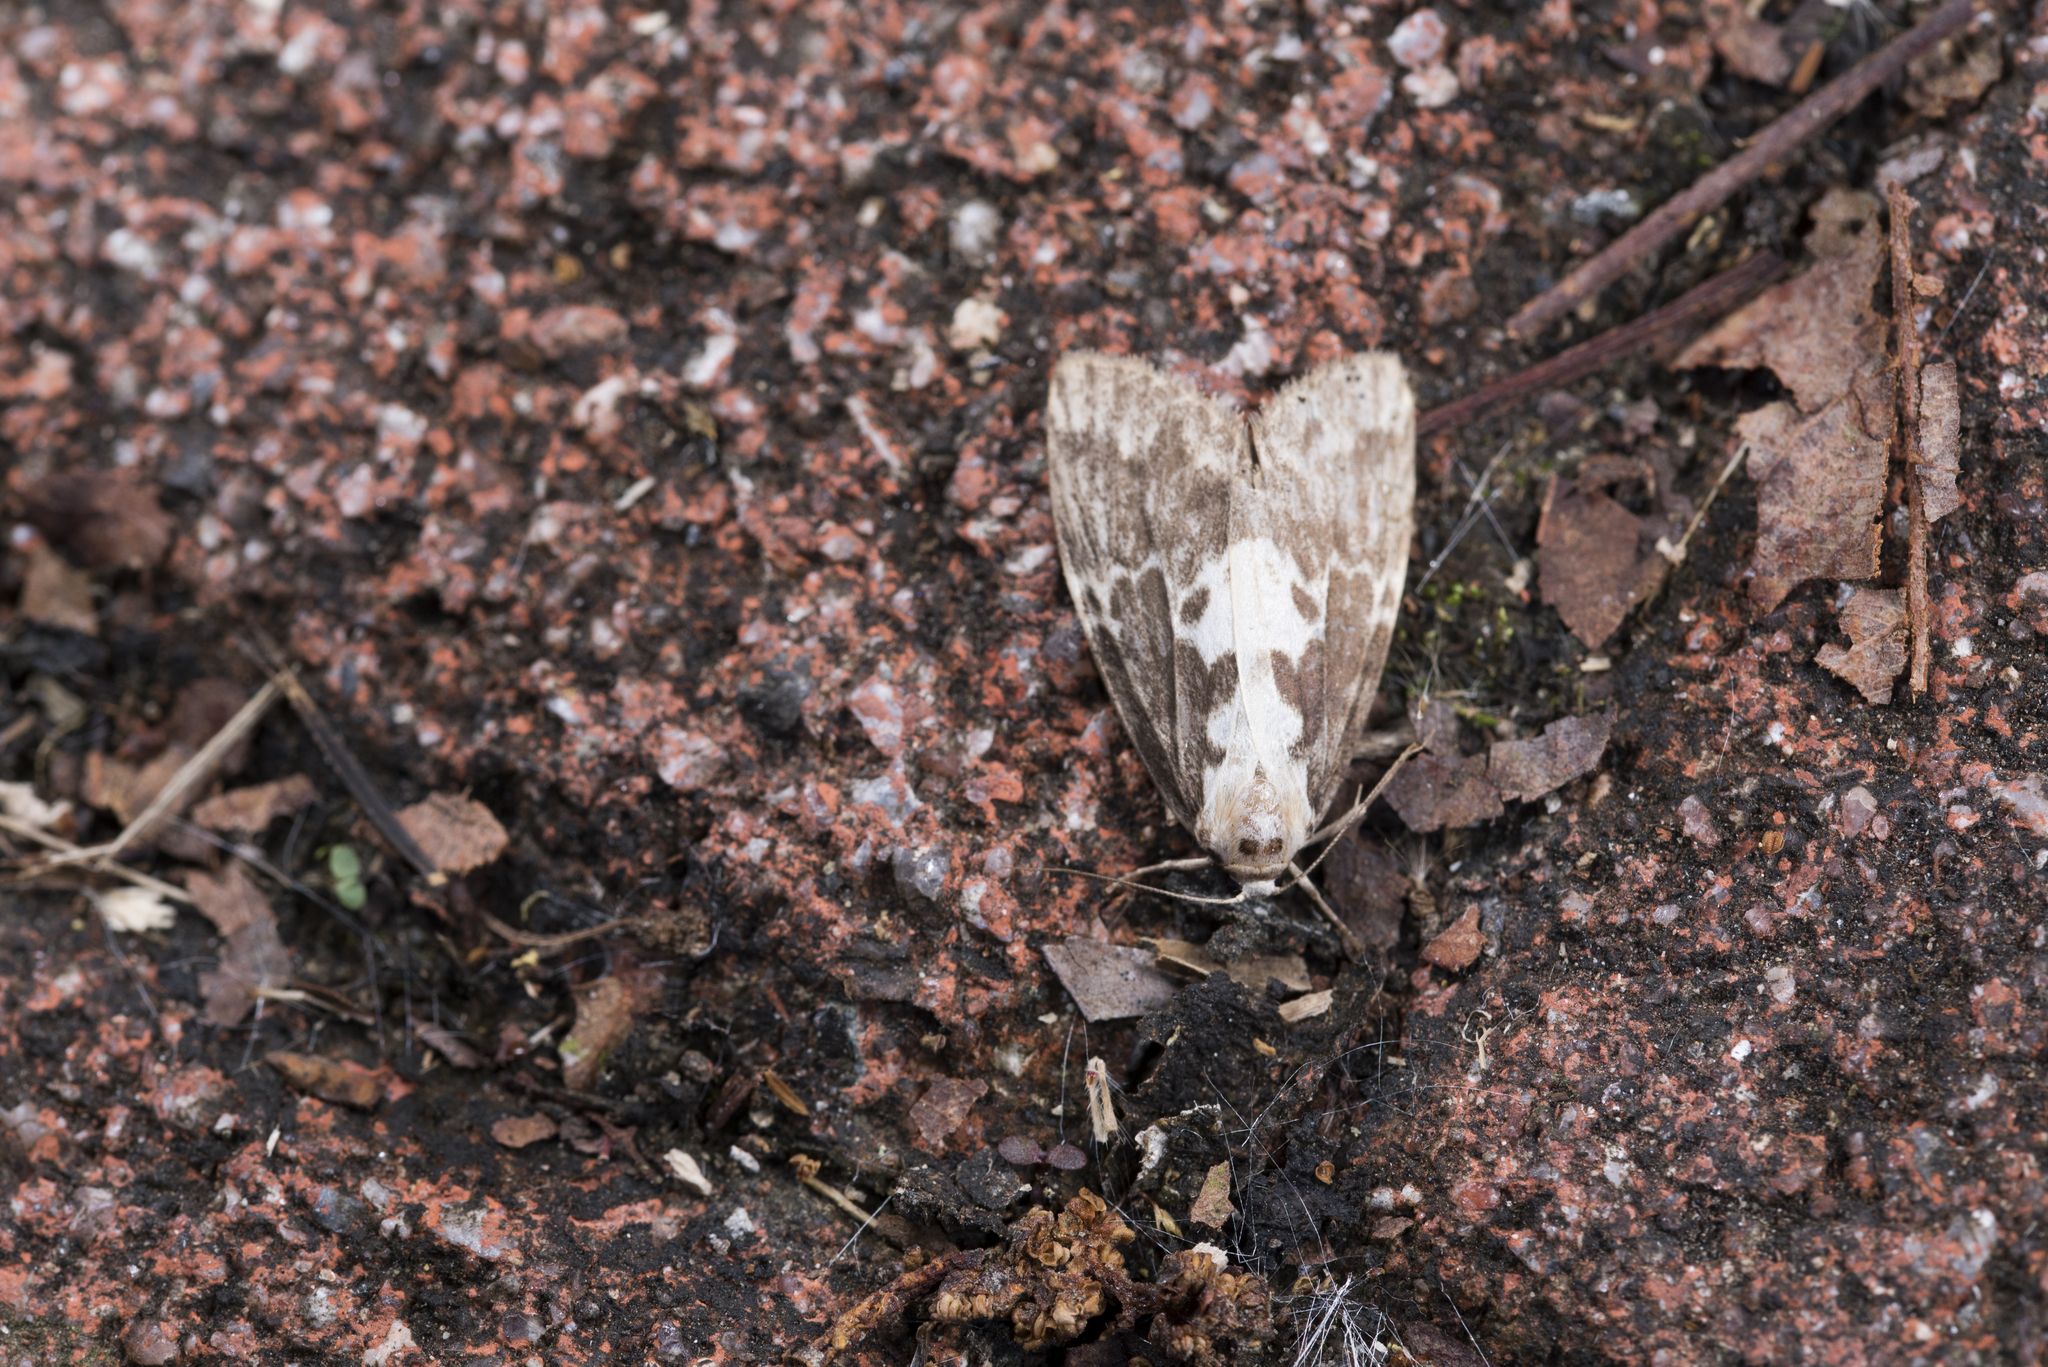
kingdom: Animalia
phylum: Arthropoda
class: Insecta
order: Lepidoptera
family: Erebidae
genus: Barsura
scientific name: Barsura albidorsalis
